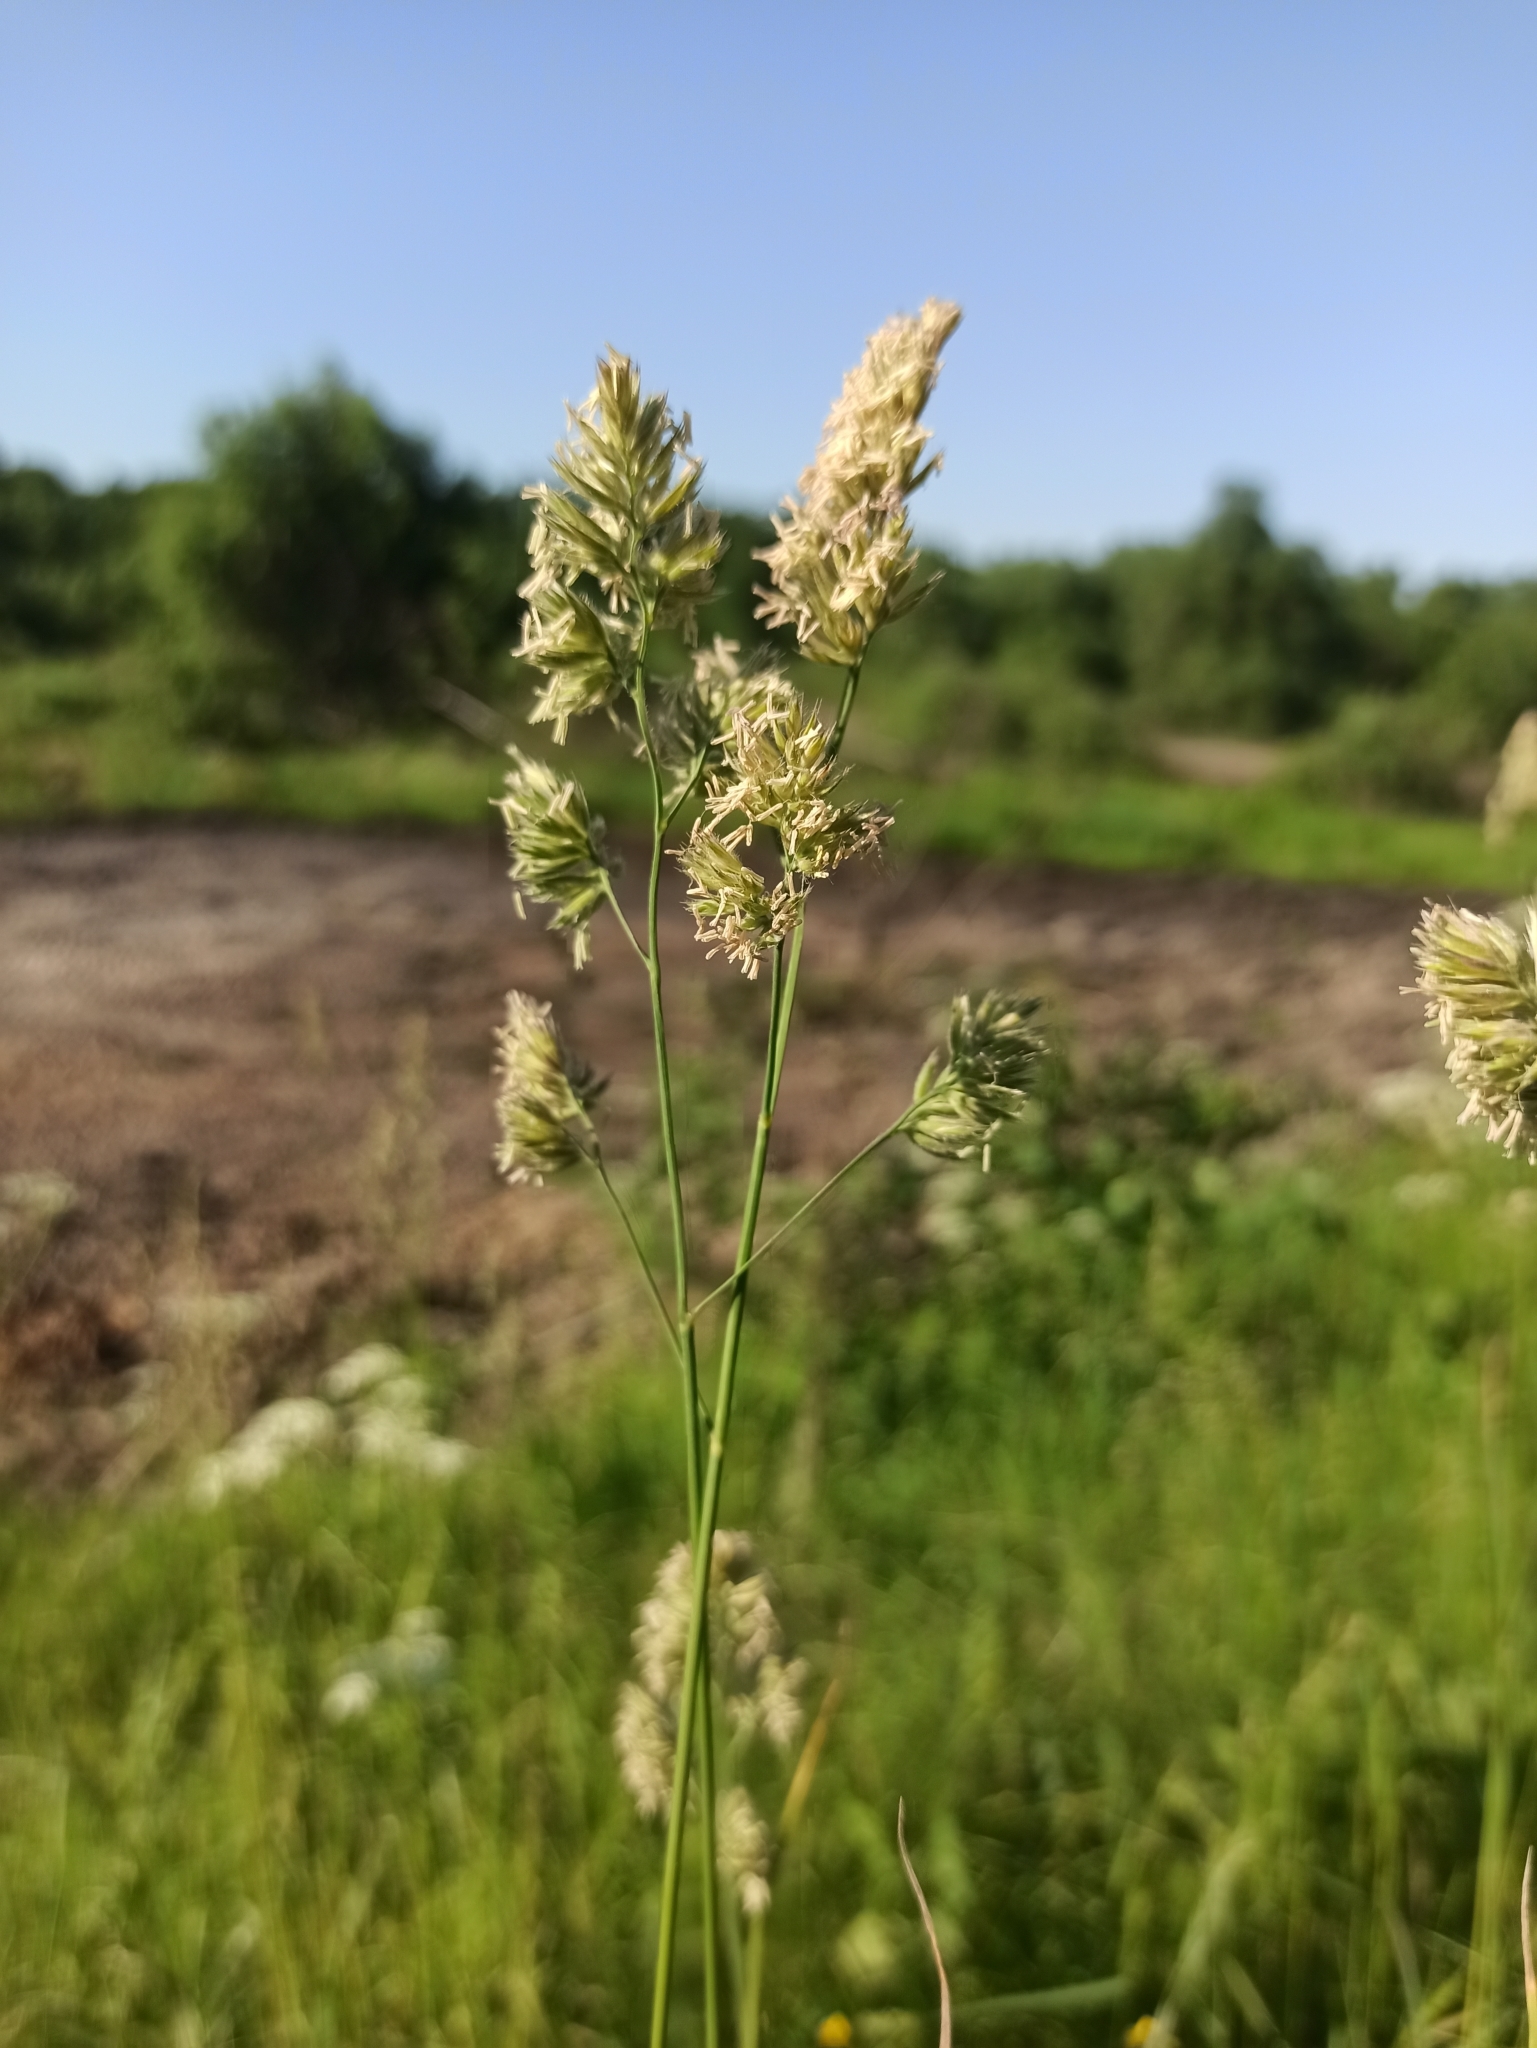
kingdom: Plantae
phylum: Tracheophyta
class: Liliopsida
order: Poales
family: Poaceae
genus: Dactylis
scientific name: Dactylis glomerata
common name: Orchardgrass
